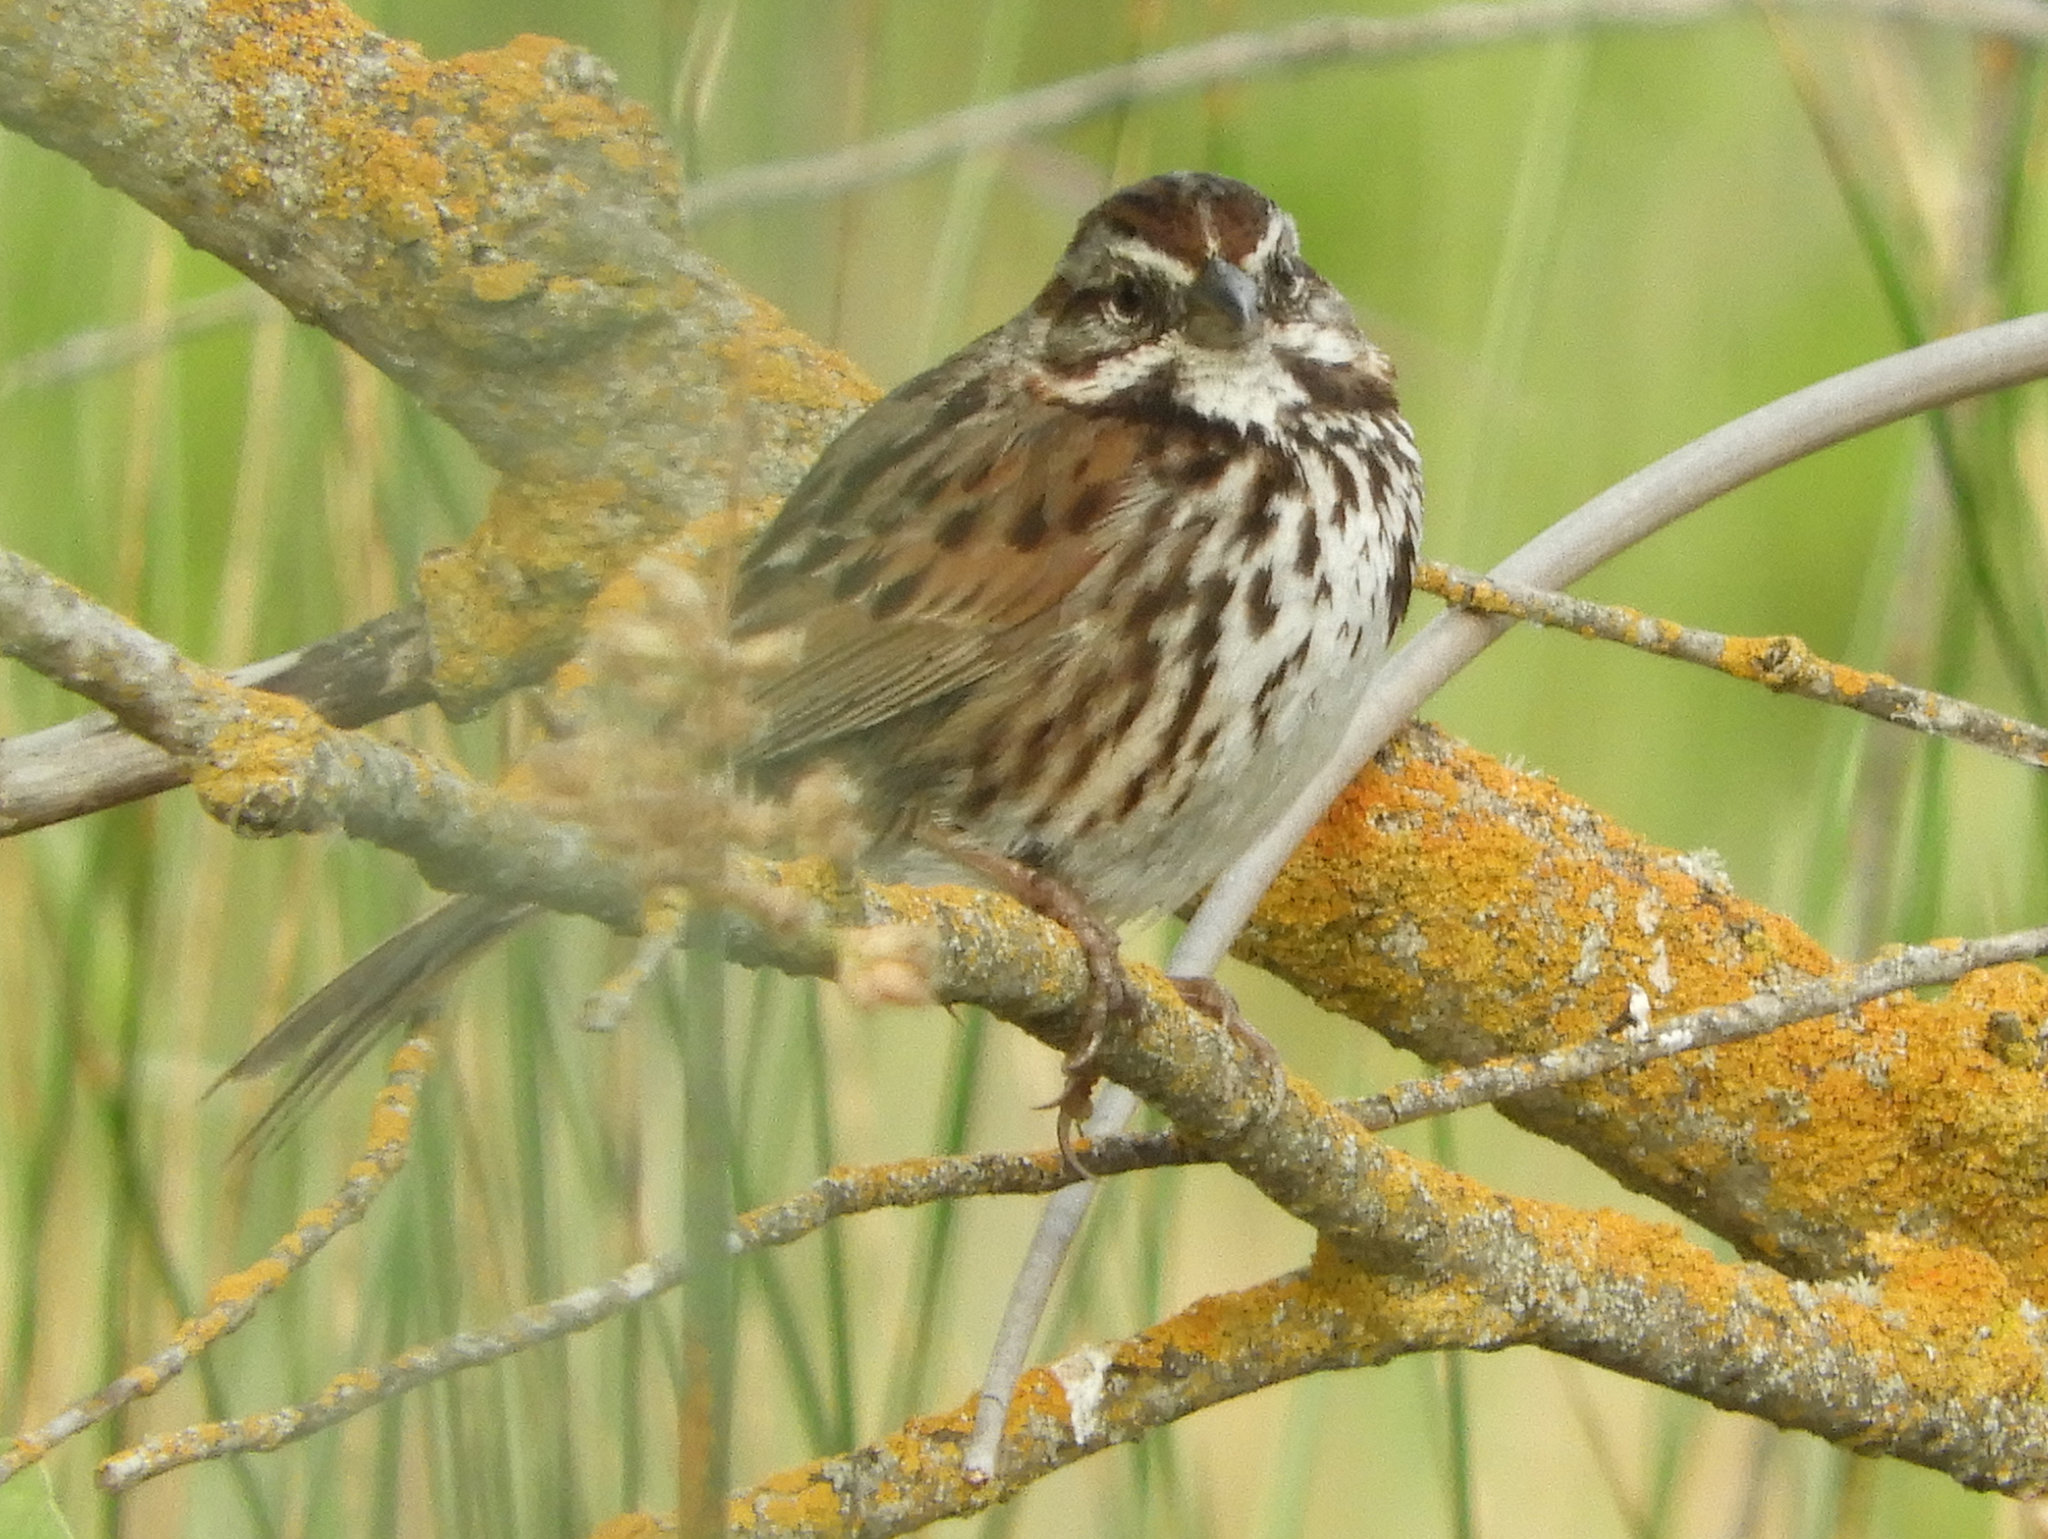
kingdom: Animalia
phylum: Chordata
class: Aves
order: Passeriformes
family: Passerellidae
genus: Melospiza
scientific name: Melospiza melodia
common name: Song sparrow
